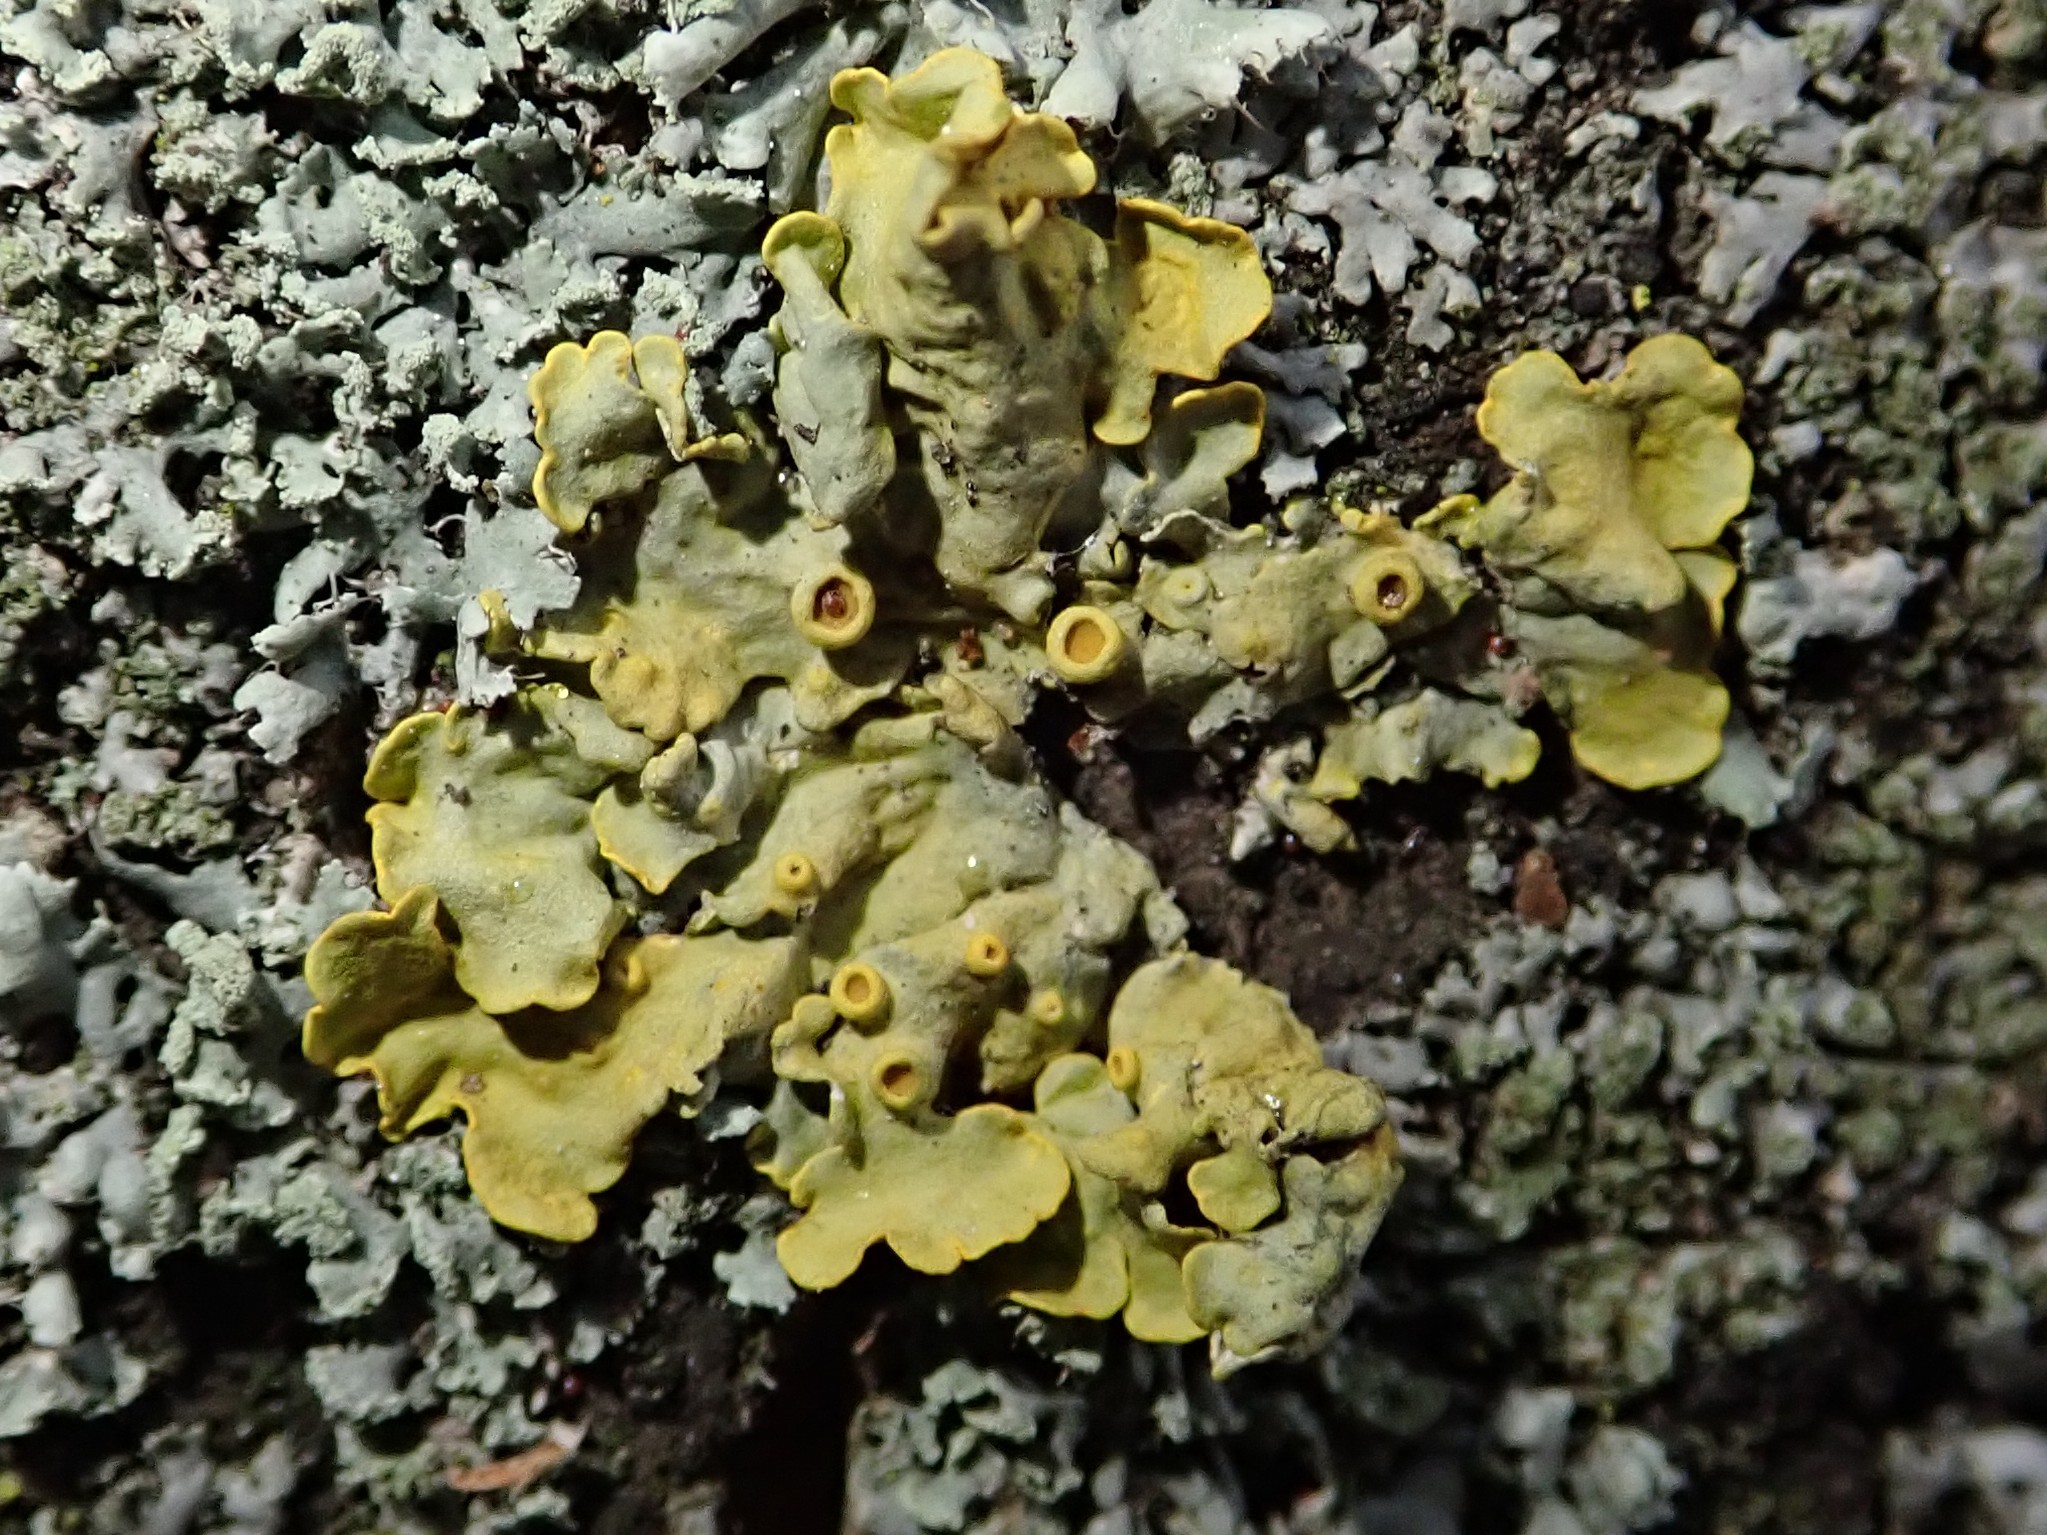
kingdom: Fungi
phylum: Ascomycota
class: Lecanoromycetes
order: Teloschistales
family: Teloschistaceae
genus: Xanthoria
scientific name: Xanthoria parietina
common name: Common orange lichen
